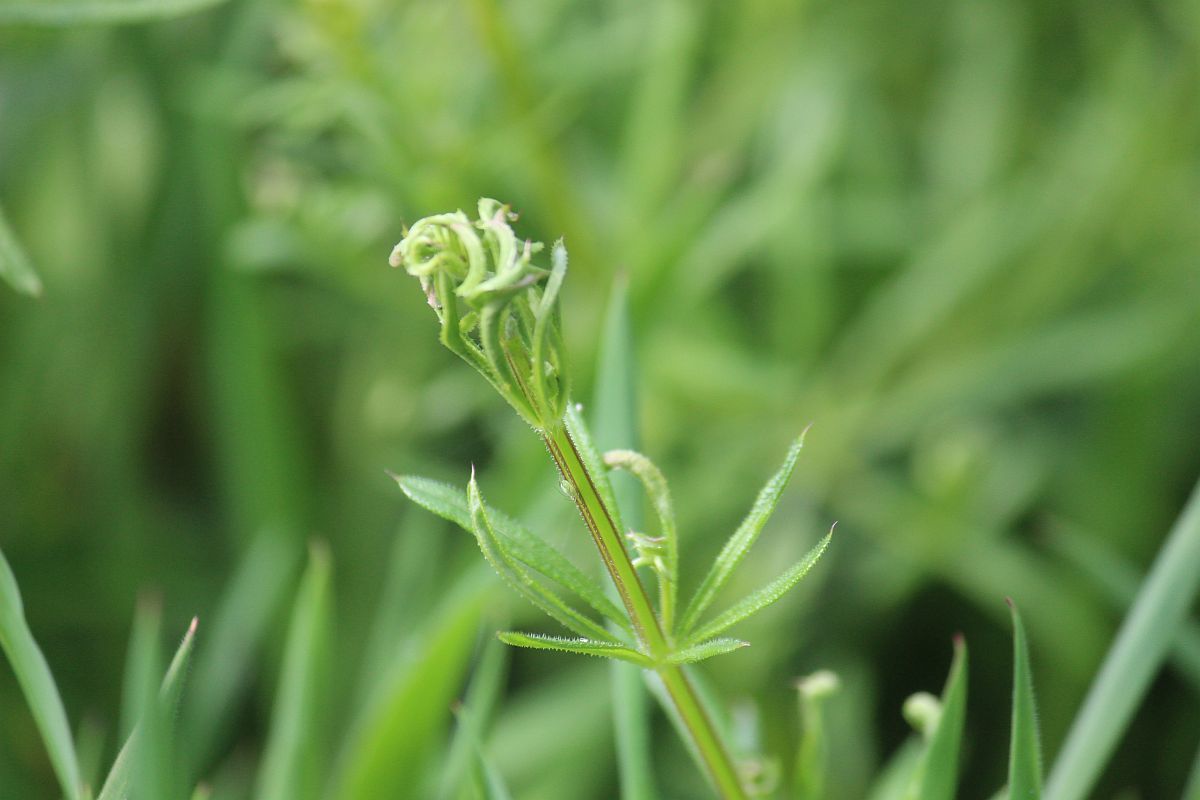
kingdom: Animalia
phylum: Arthropoda
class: Arachnida
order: Trombidiformes
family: Eriophyidae
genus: Cecidophyes
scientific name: Cecidophyes rouhollahi
